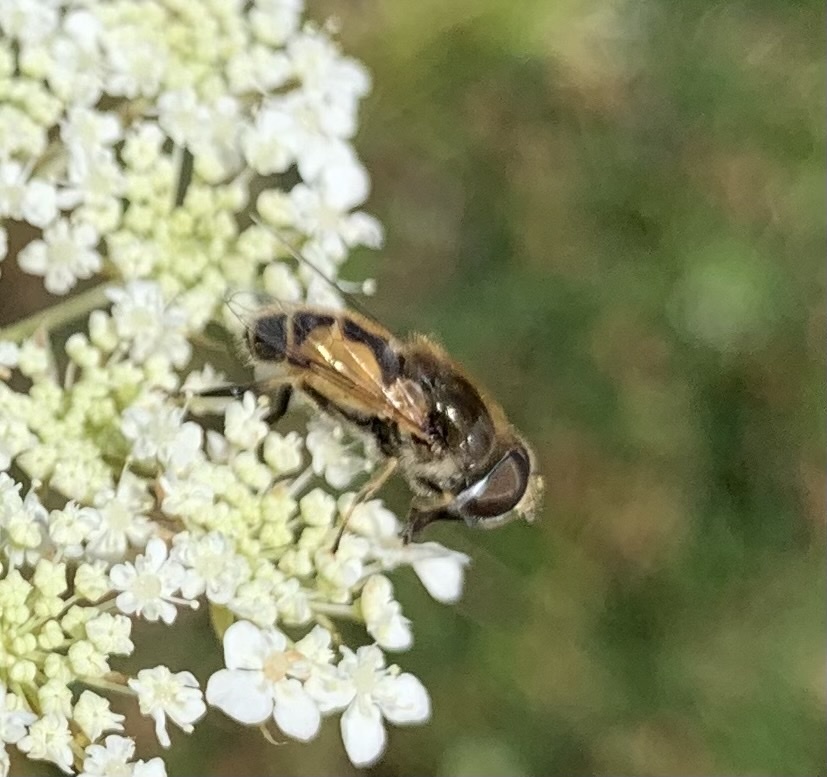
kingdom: Animalia
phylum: Arthropoda
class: Insecta
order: Diptera
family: Syrphidae
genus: Eristalis
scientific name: Eristalis arbustorum
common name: Hover fly
